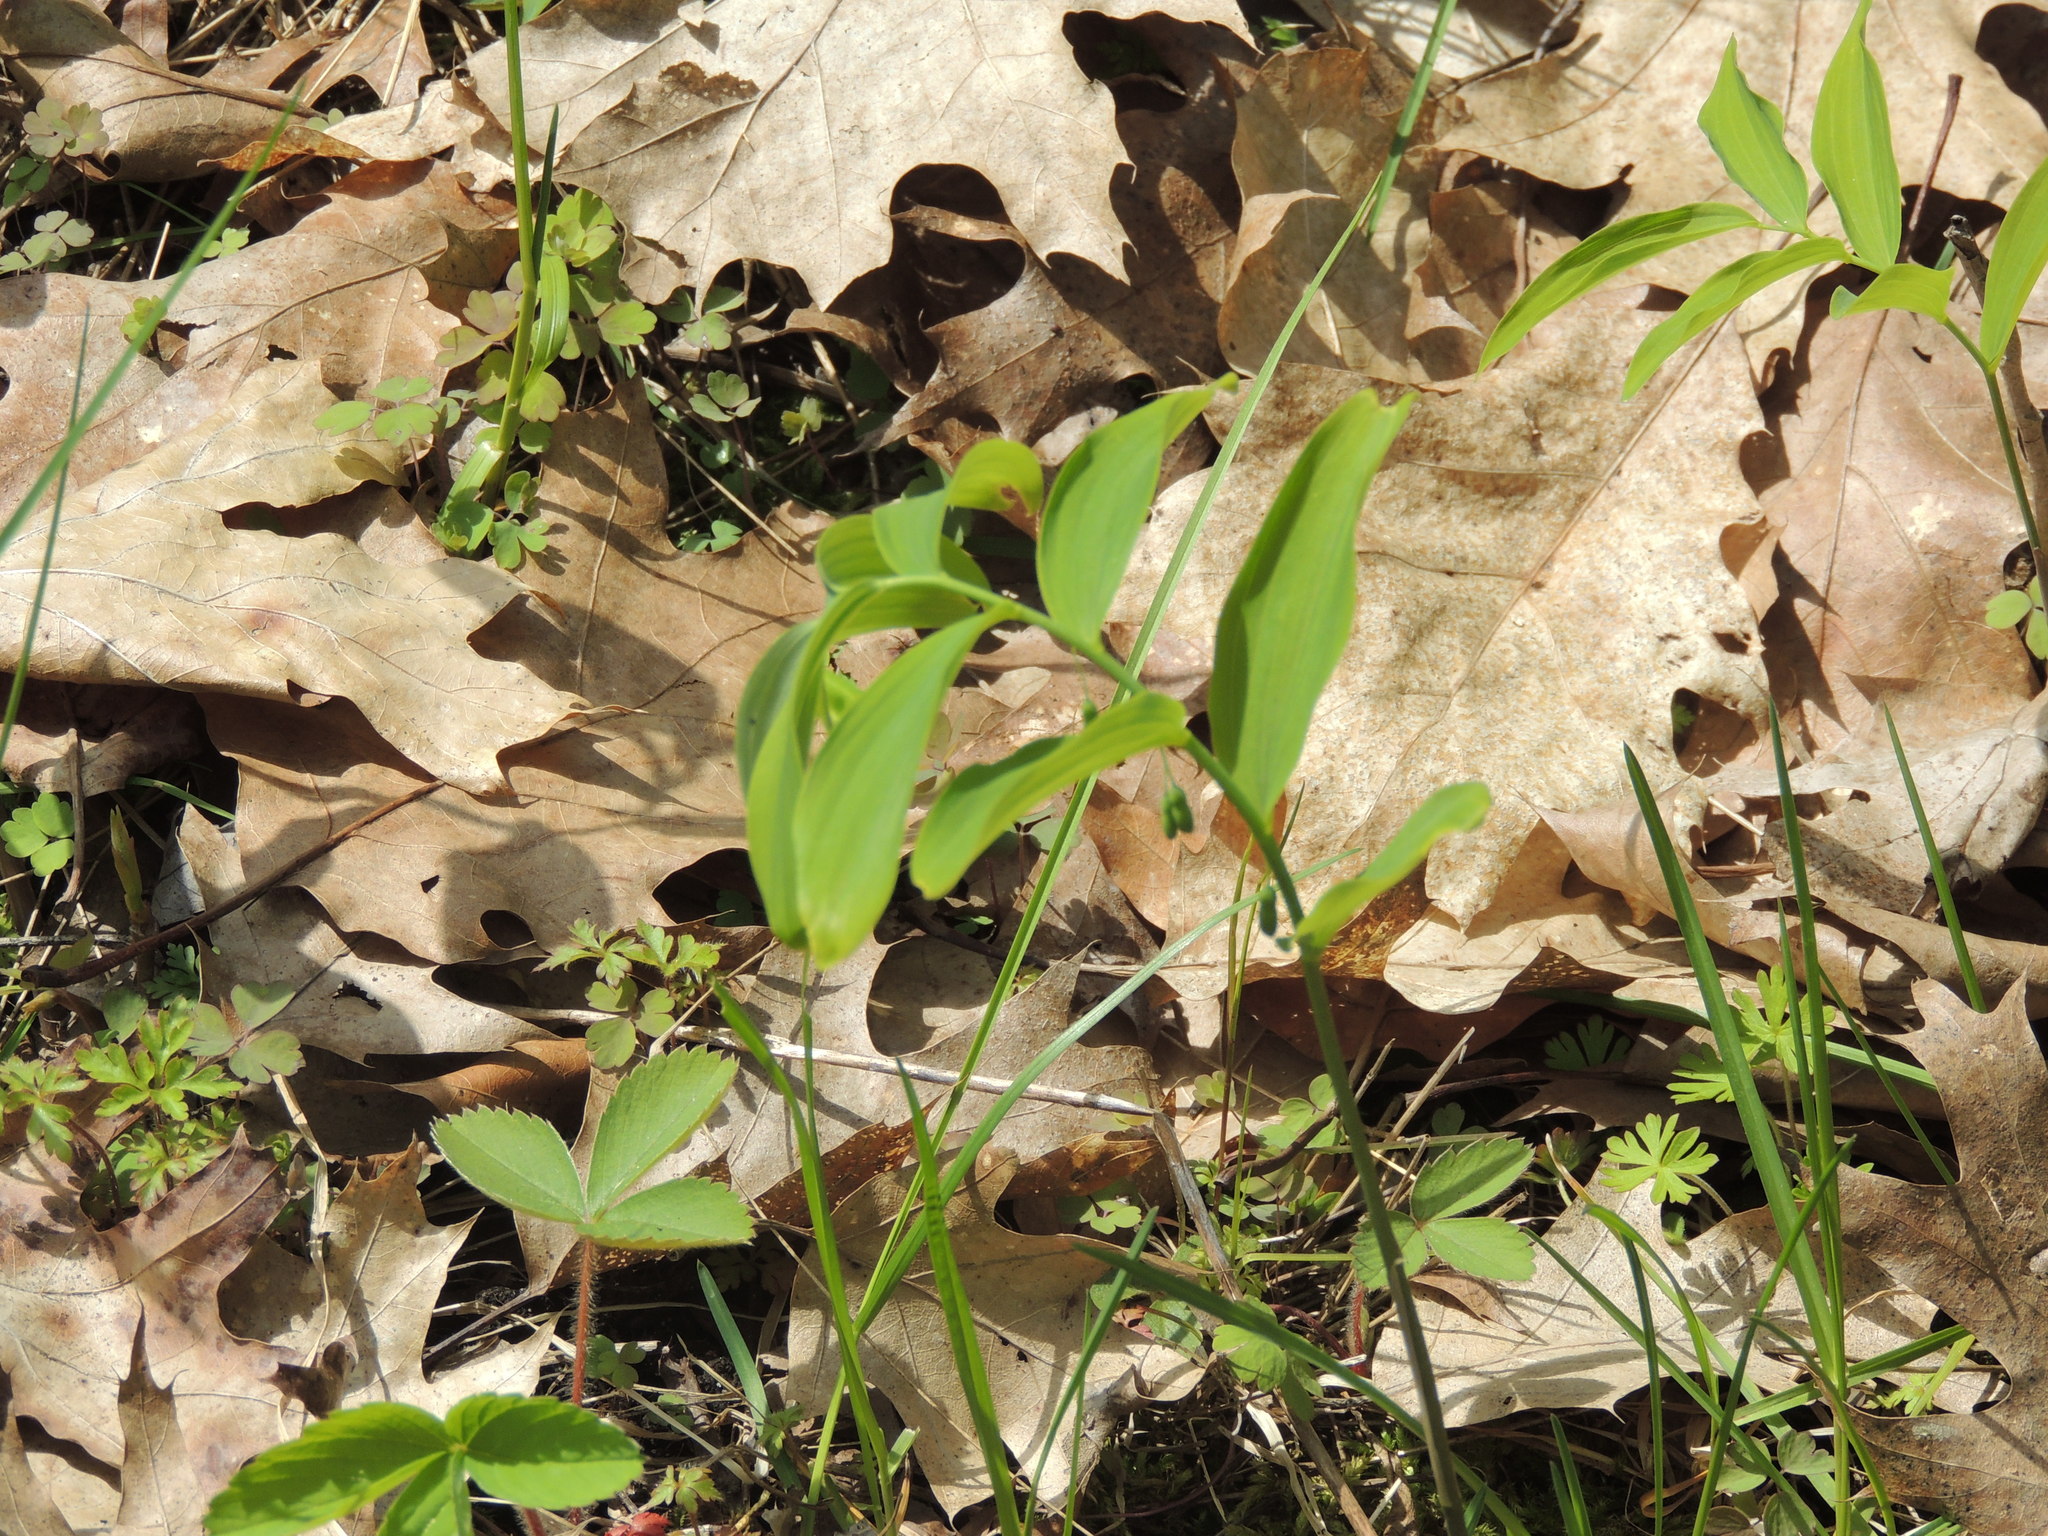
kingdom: Plantae
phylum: Tracheophyta
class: Liliopsida
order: Asparagales
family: Asparagaceae
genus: Polygonatum
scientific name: Polygonatum pubescens
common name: Downy solomon's seal
